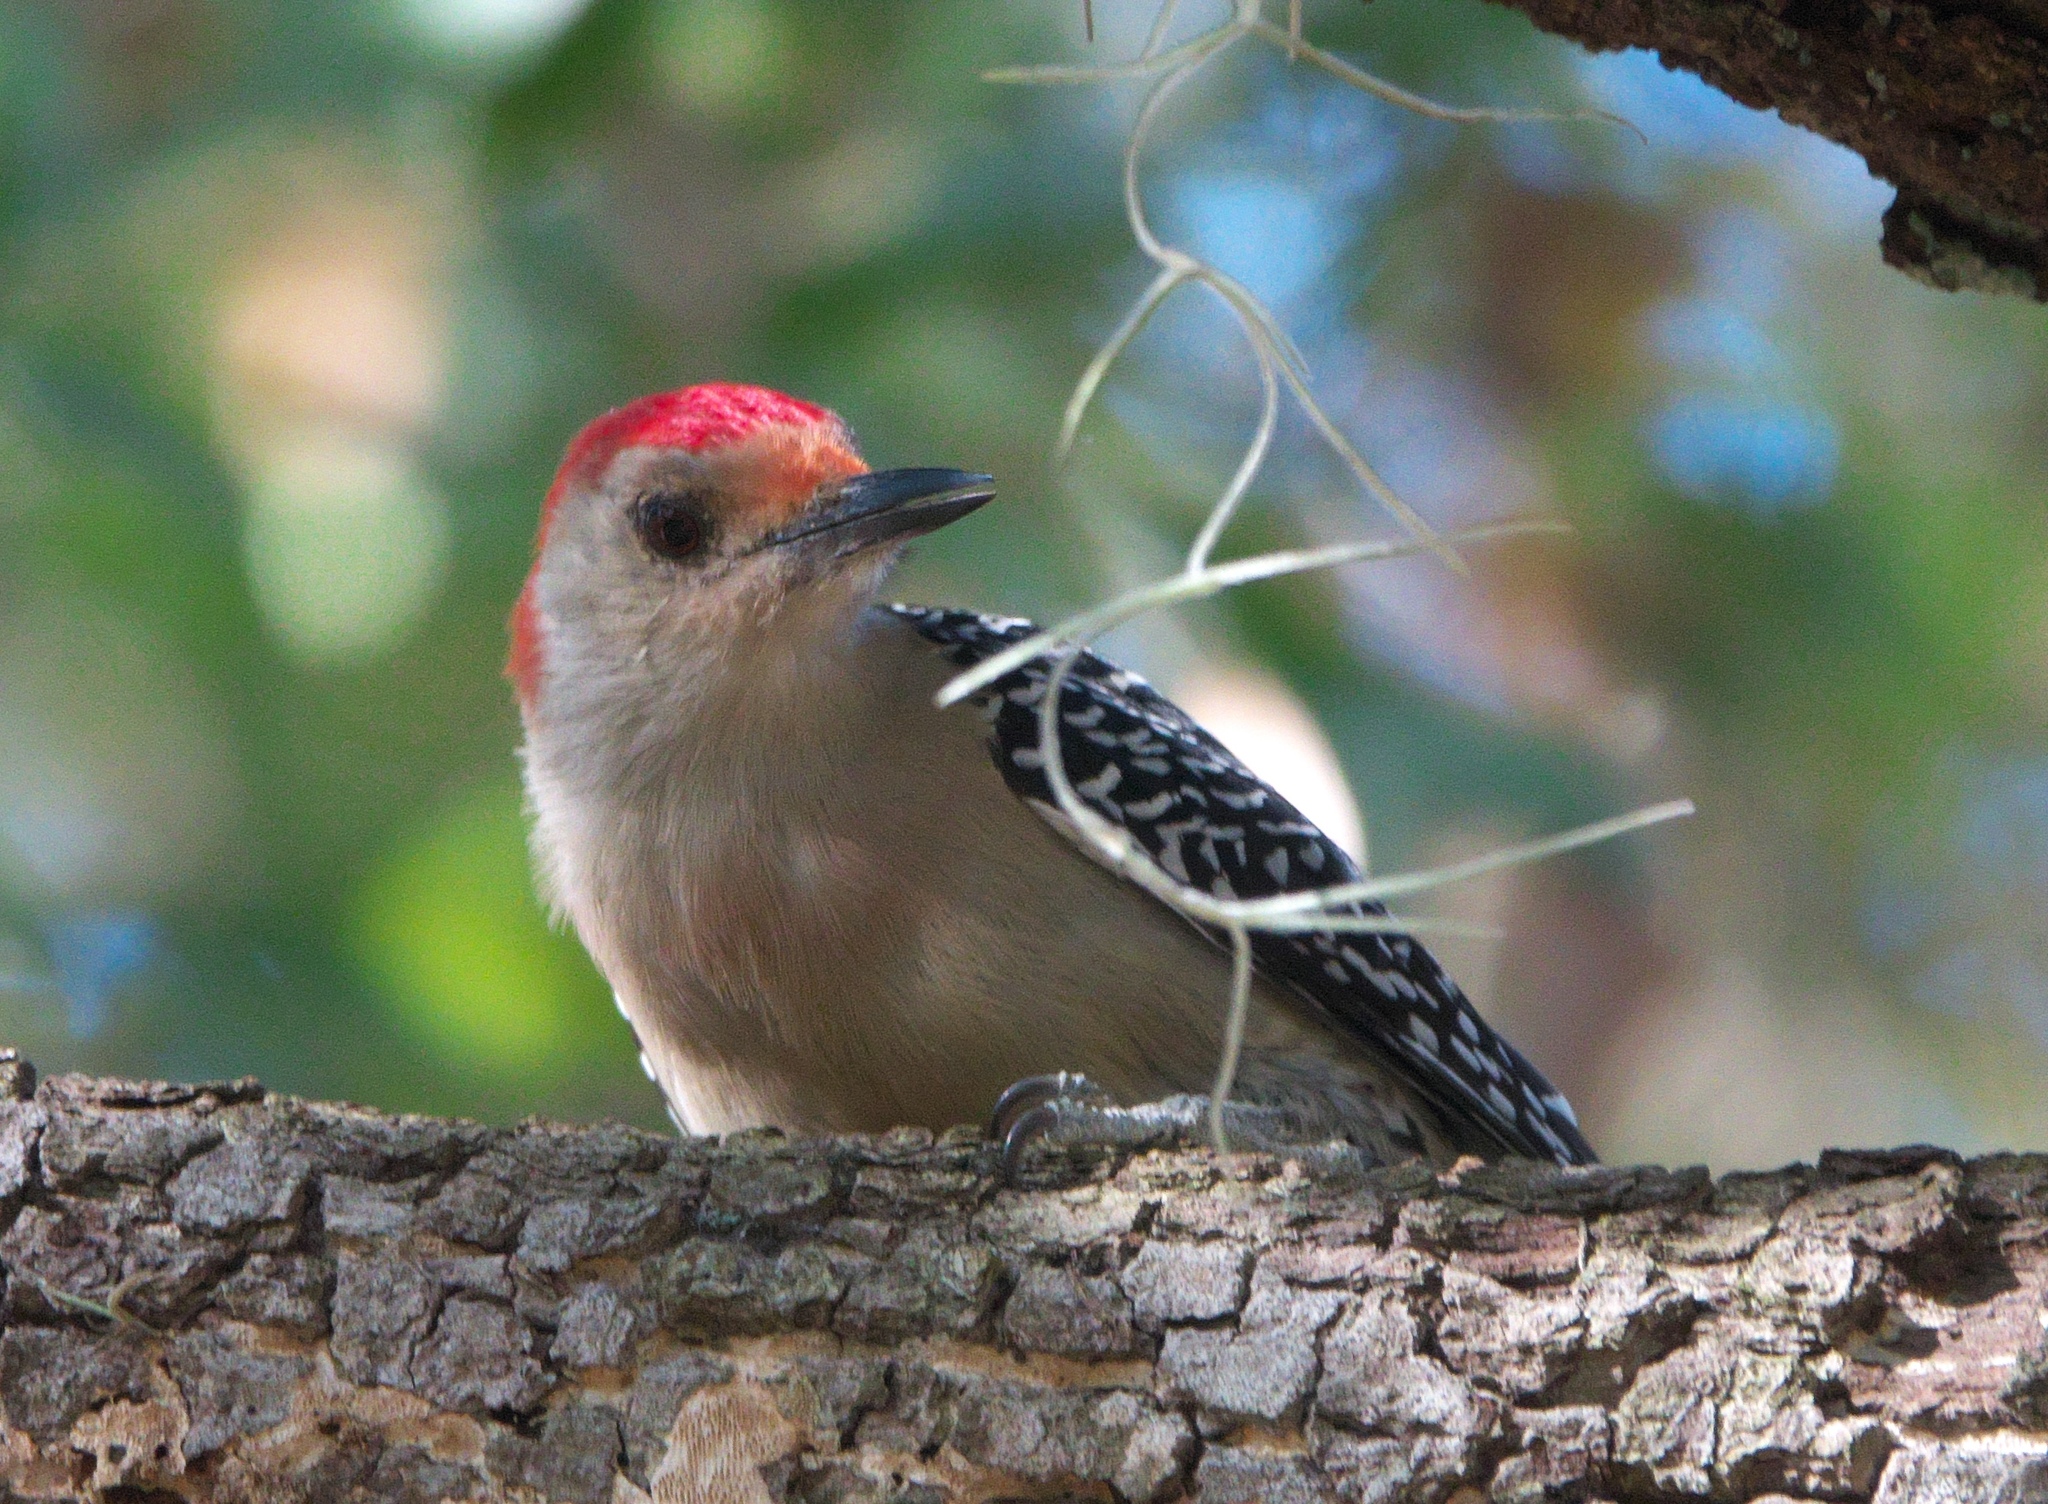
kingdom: Animalia
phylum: Chordata
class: Aves
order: Piciformes
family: Picidae
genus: Melanerpes
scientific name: Melanerpes carolinus
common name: Red-bellied woodpecker
